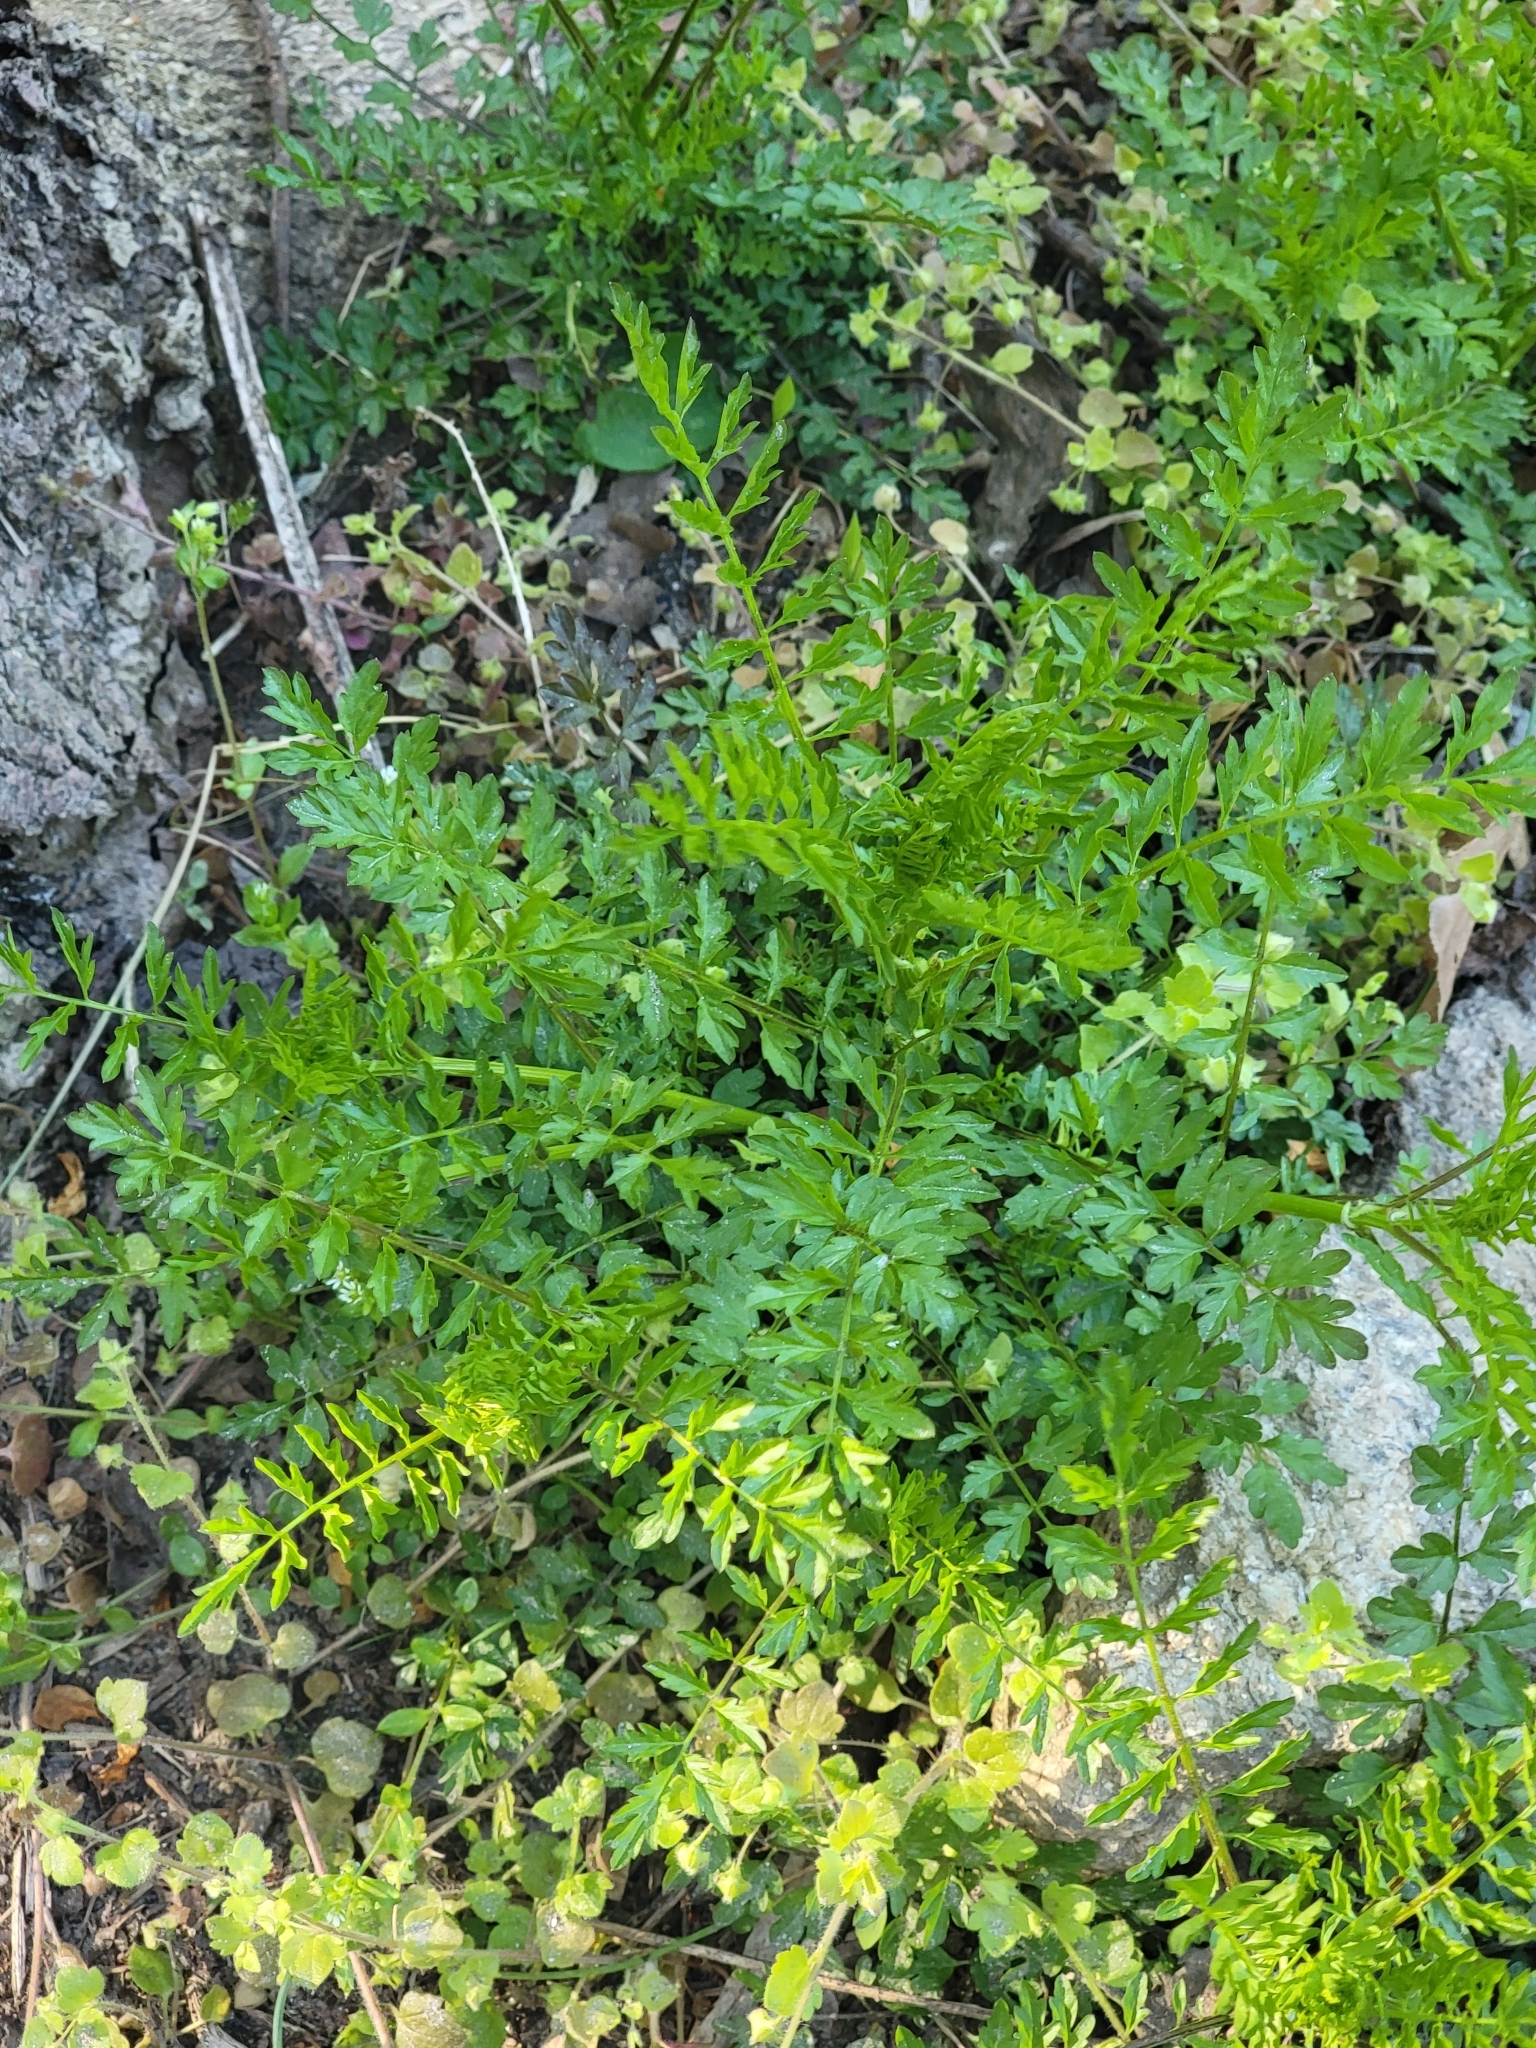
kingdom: Plantae
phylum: Tracheophyta
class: Magnoliopsida
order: Brassicales
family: Brassicaceae
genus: Cardamine
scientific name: Cardamine impatiens
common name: Narrow-leaved bitter-cress
